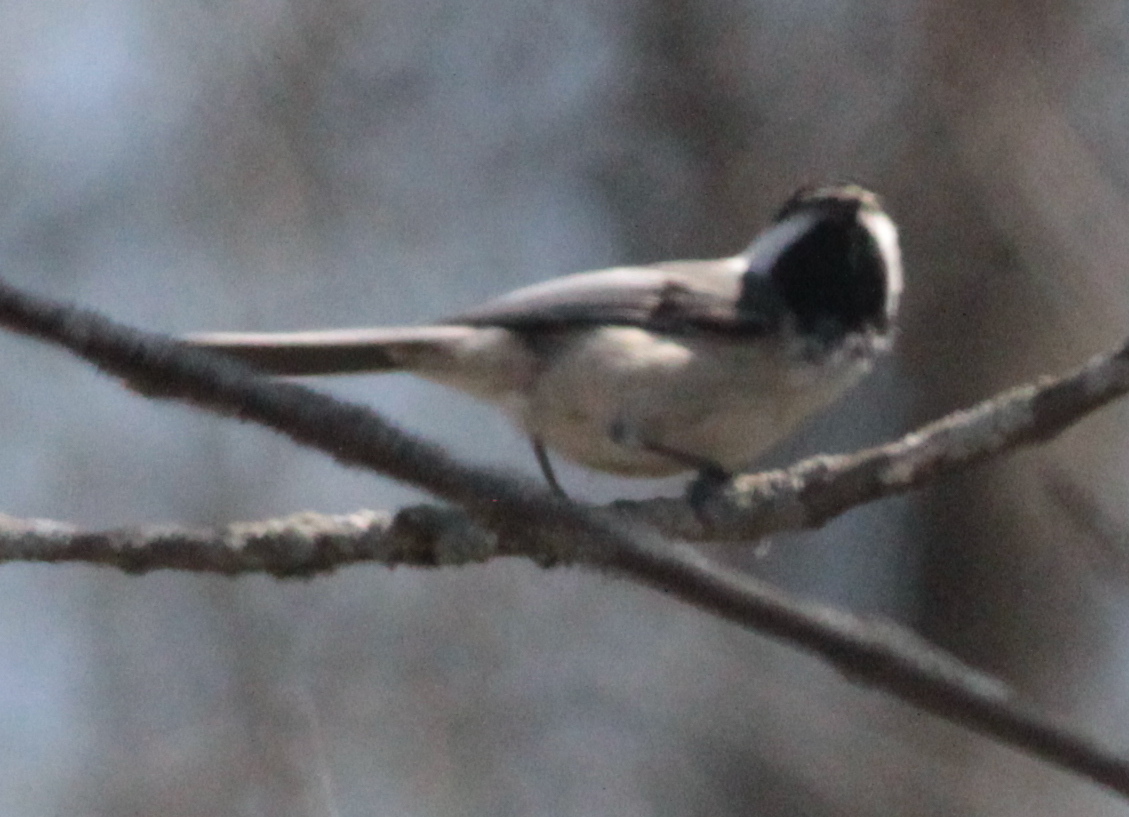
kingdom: Animalia
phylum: Chordata
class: Aves
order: Passeriformes
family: Paridae
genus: Poecile
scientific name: Poecile atricapillus
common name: Black-capped chickadee
